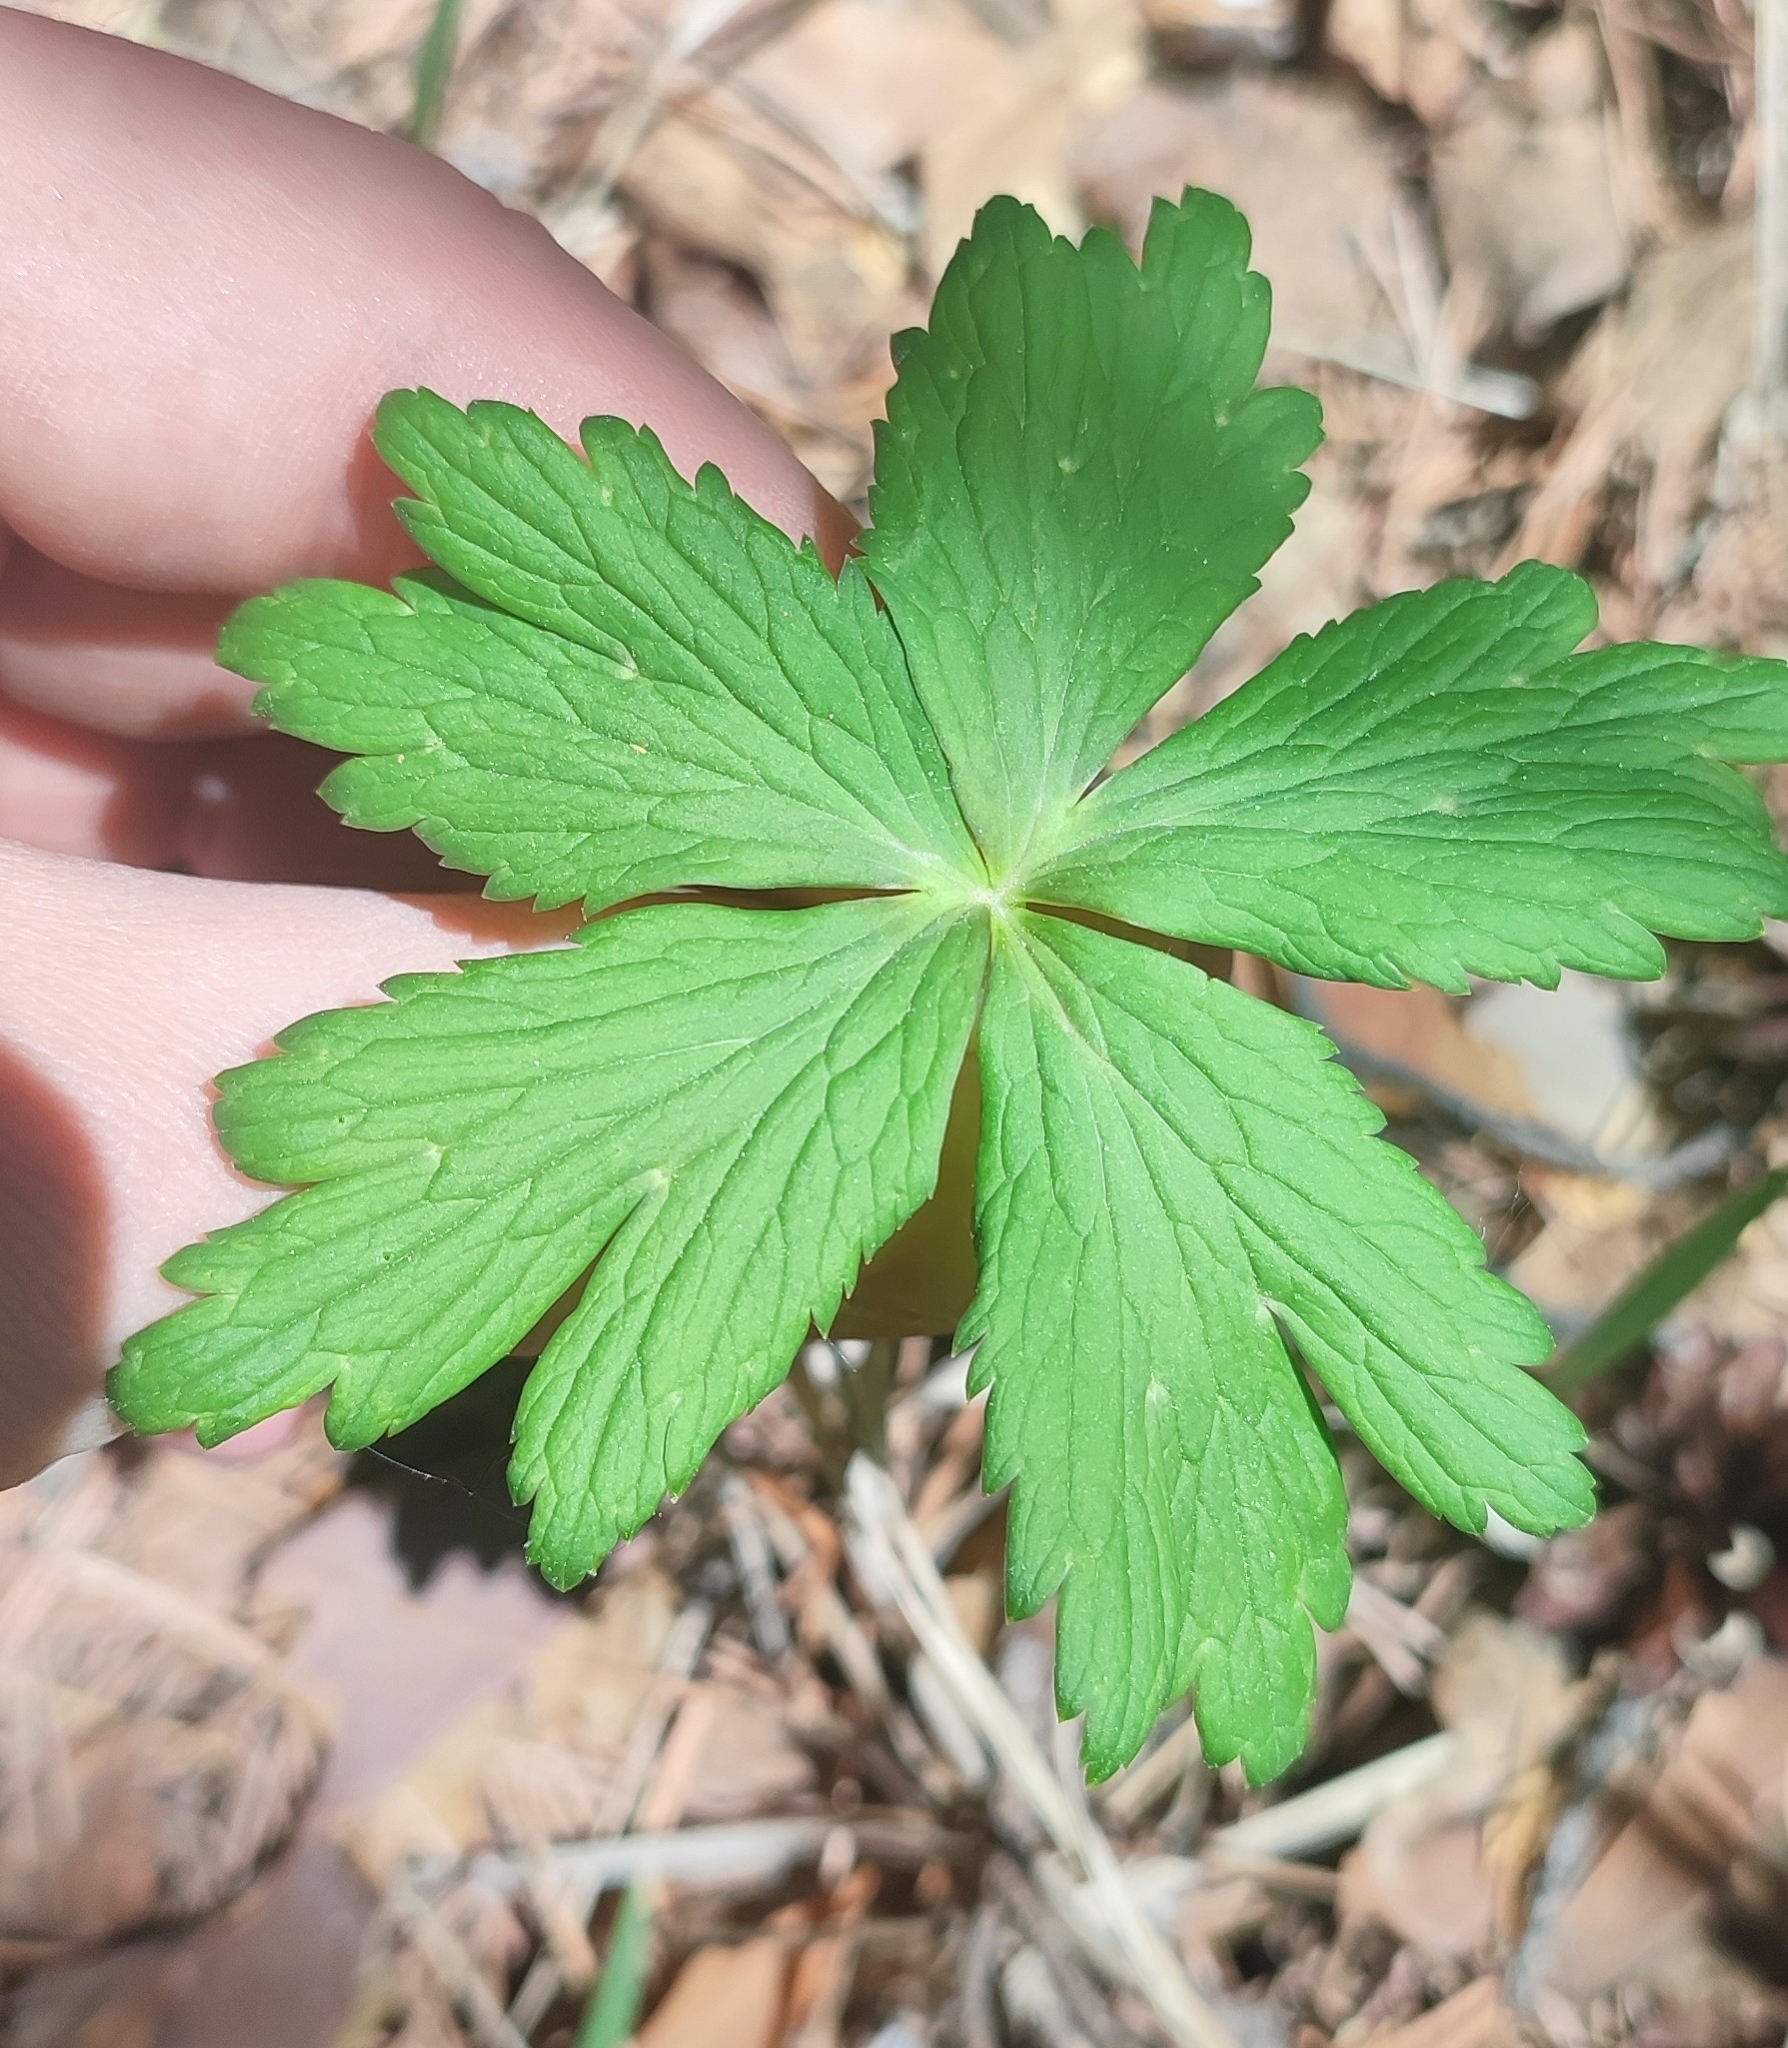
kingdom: Plantae
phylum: Tracheophyta
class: Magnoliopsida
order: Ranunculales
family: Ranunculaceae
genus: Trollius
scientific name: Trollius europaeus
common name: European globeflower
